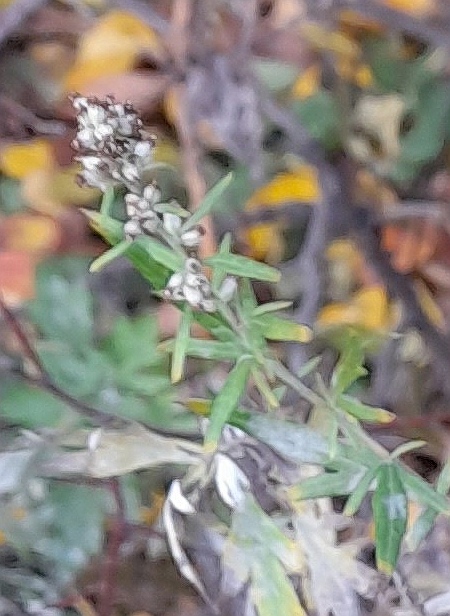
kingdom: Plantae
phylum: Tracheophyta
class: Magnoliopsida
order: Asterales
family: Asteraceae
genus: Artemisia
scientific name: Artemisia vulgaris
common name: Mugwort
